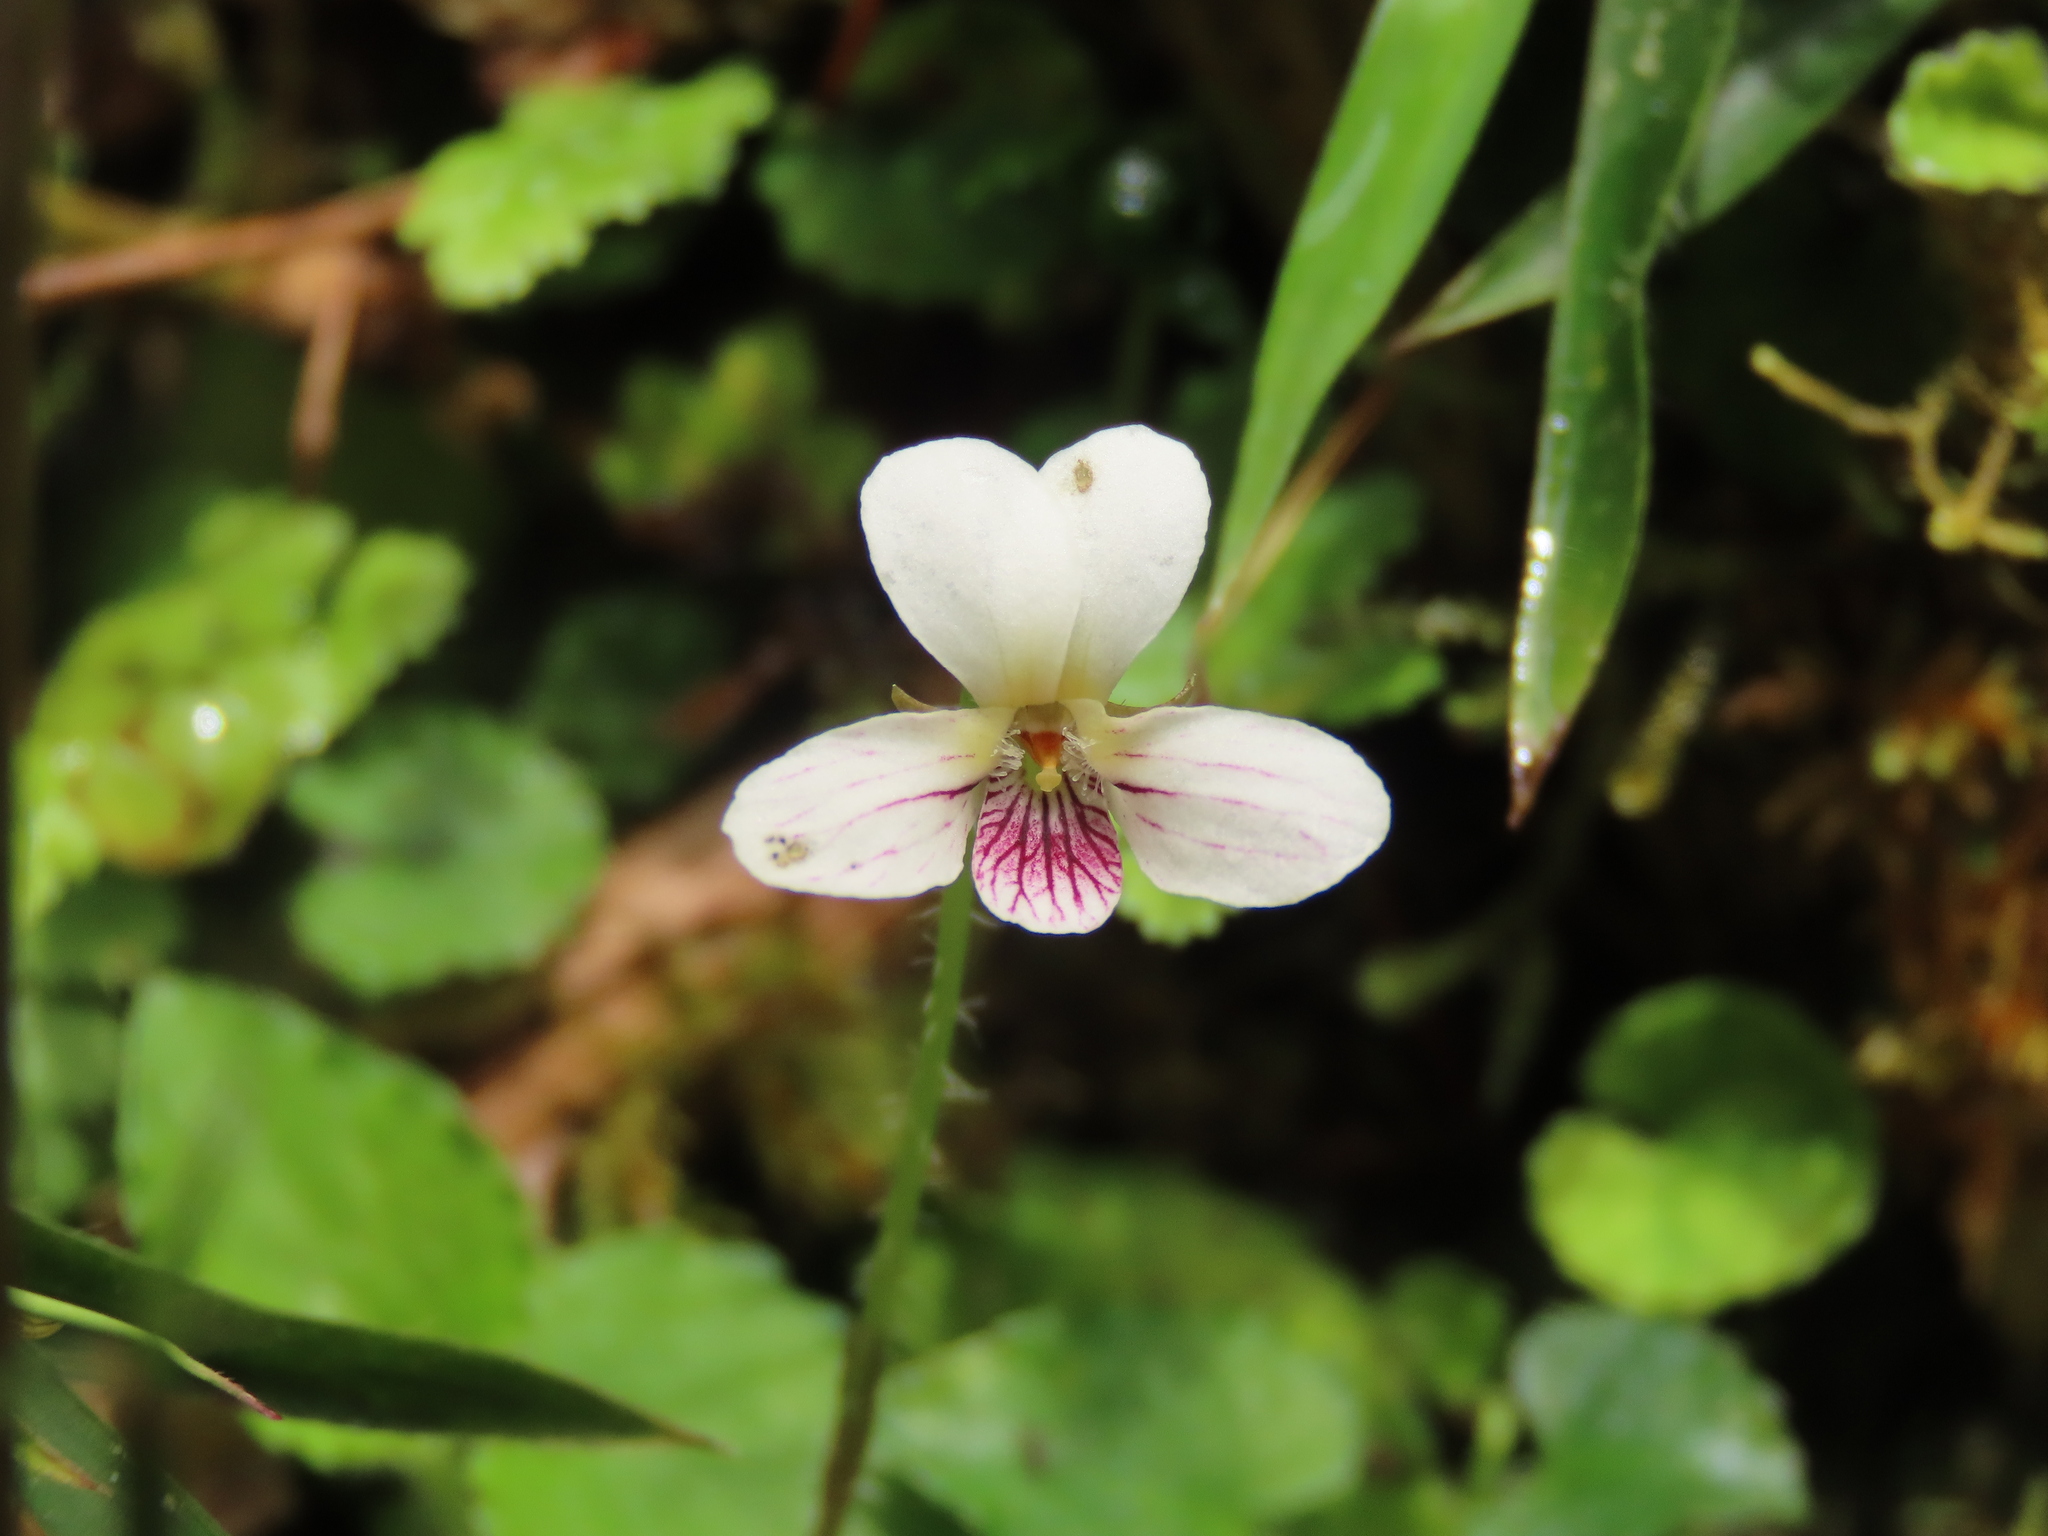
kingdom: Plantae
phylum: Tracheophyta
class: Magnoliopsida
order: Malpighiales
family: Violaceae
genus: Viola
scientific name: Viola adenothrix
